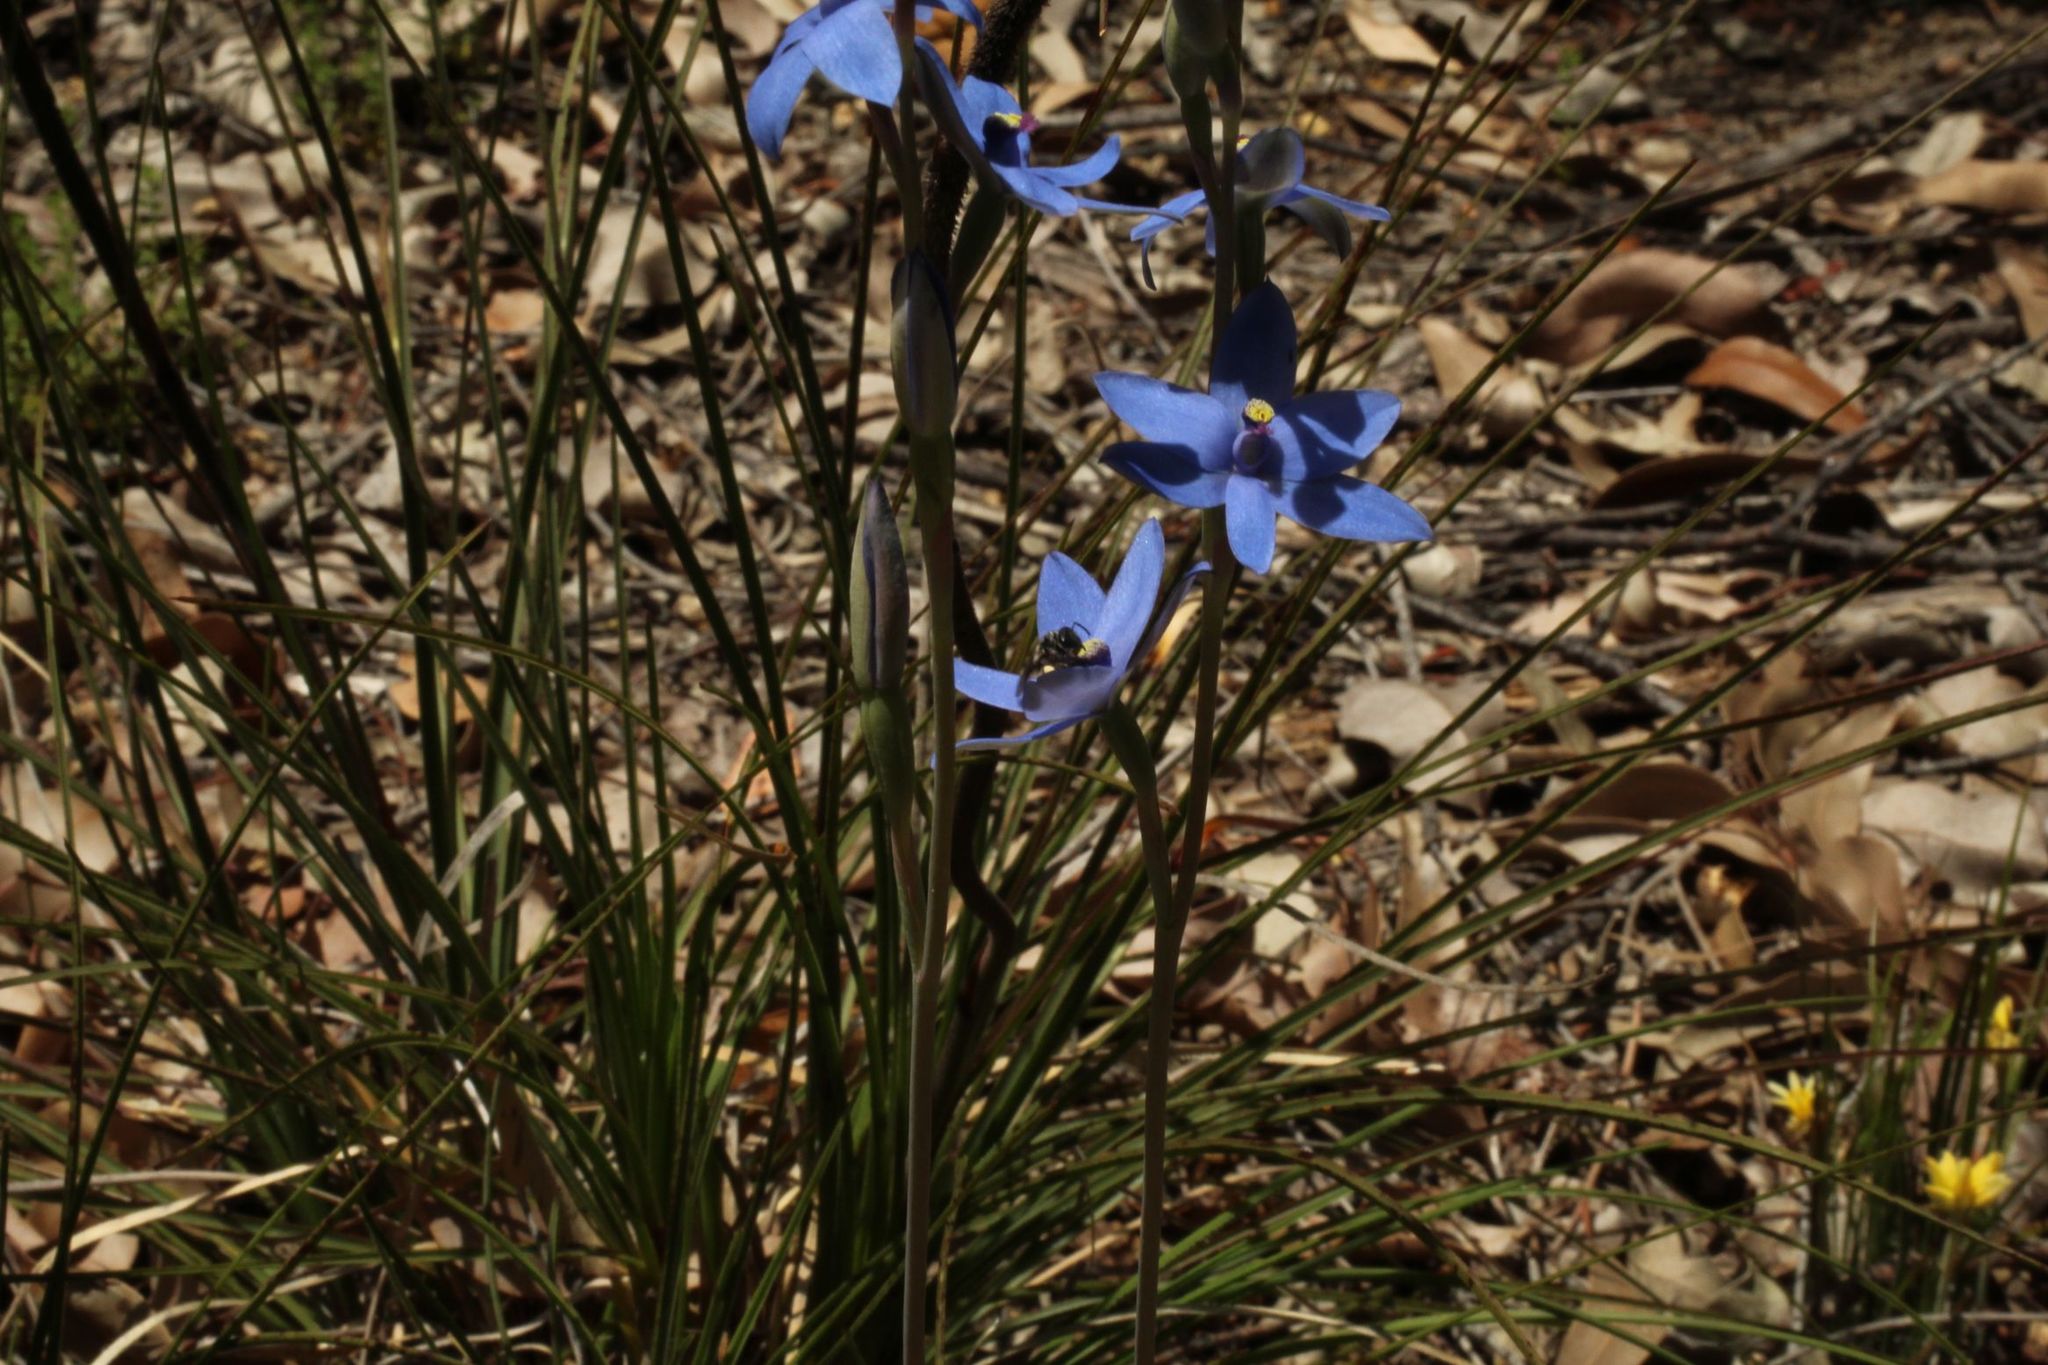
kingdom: Plantae
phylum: Tracheophyta
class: Liliopsida
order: Asparagales
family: Orchidaceae
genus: Thelymitra
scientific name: Thelymitra crinita
